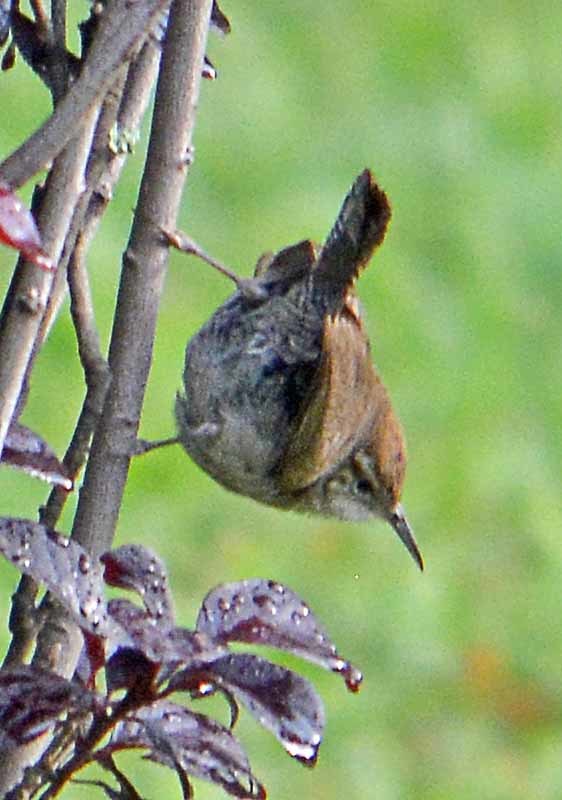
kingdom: Animalia
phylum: Chordata
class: Aves
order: Passeriformes
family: Troglodytidae
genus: Thryomanes
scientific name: Thryomanes bewickii
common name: Bewick's wren
